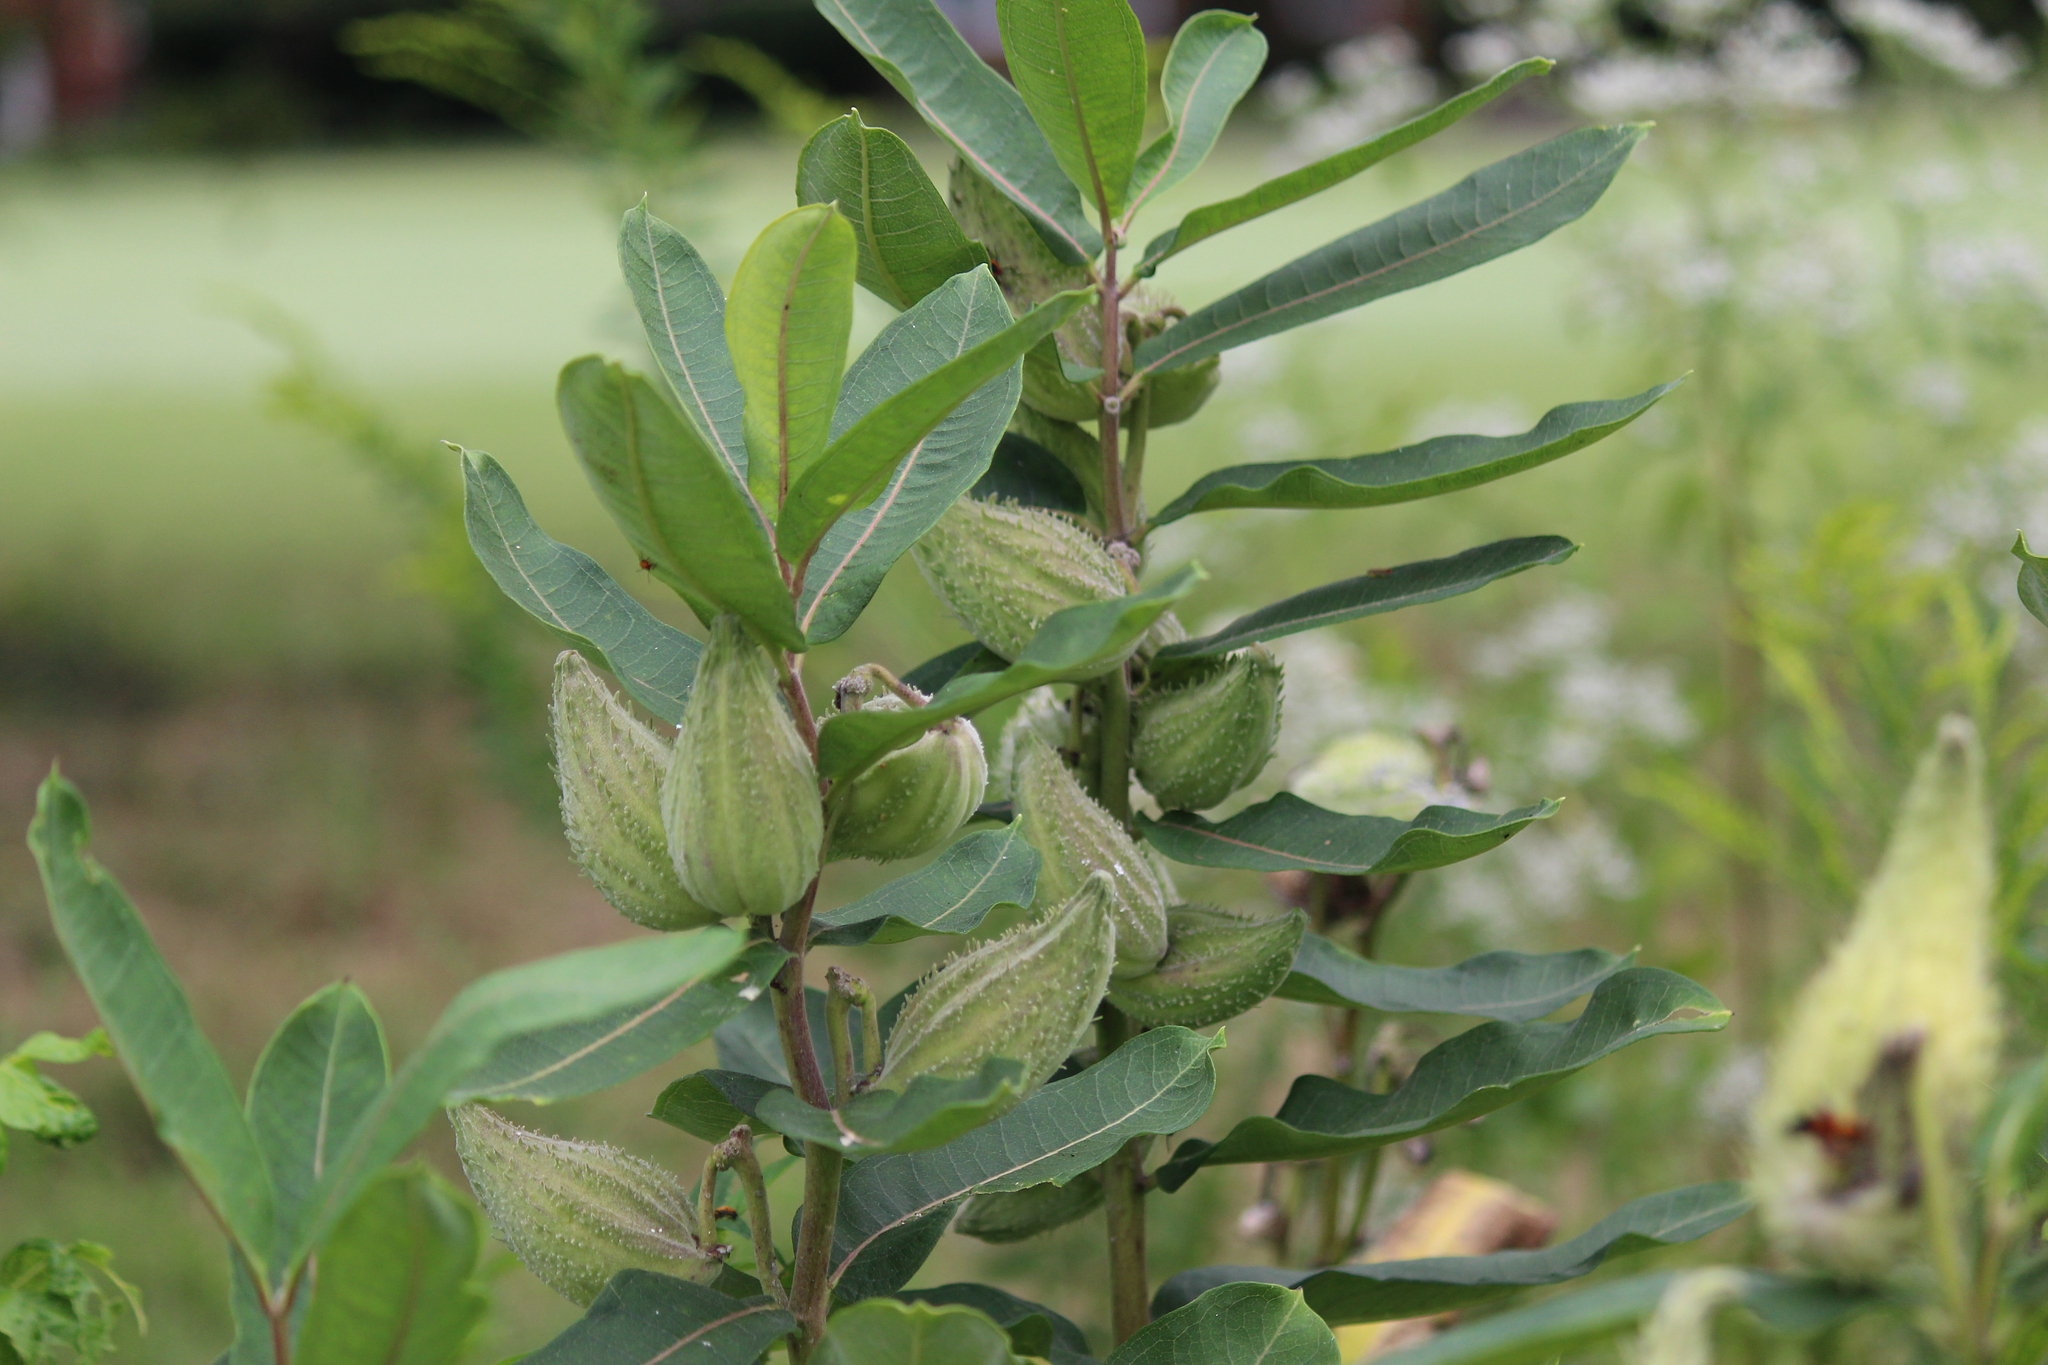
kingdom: Plantae
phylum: Tracheophyta
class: Magnoliopsida
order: Gentianales
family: Apocynaceae
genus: Asclepias
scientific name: Asclepias syriaca
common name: Common milkweed
